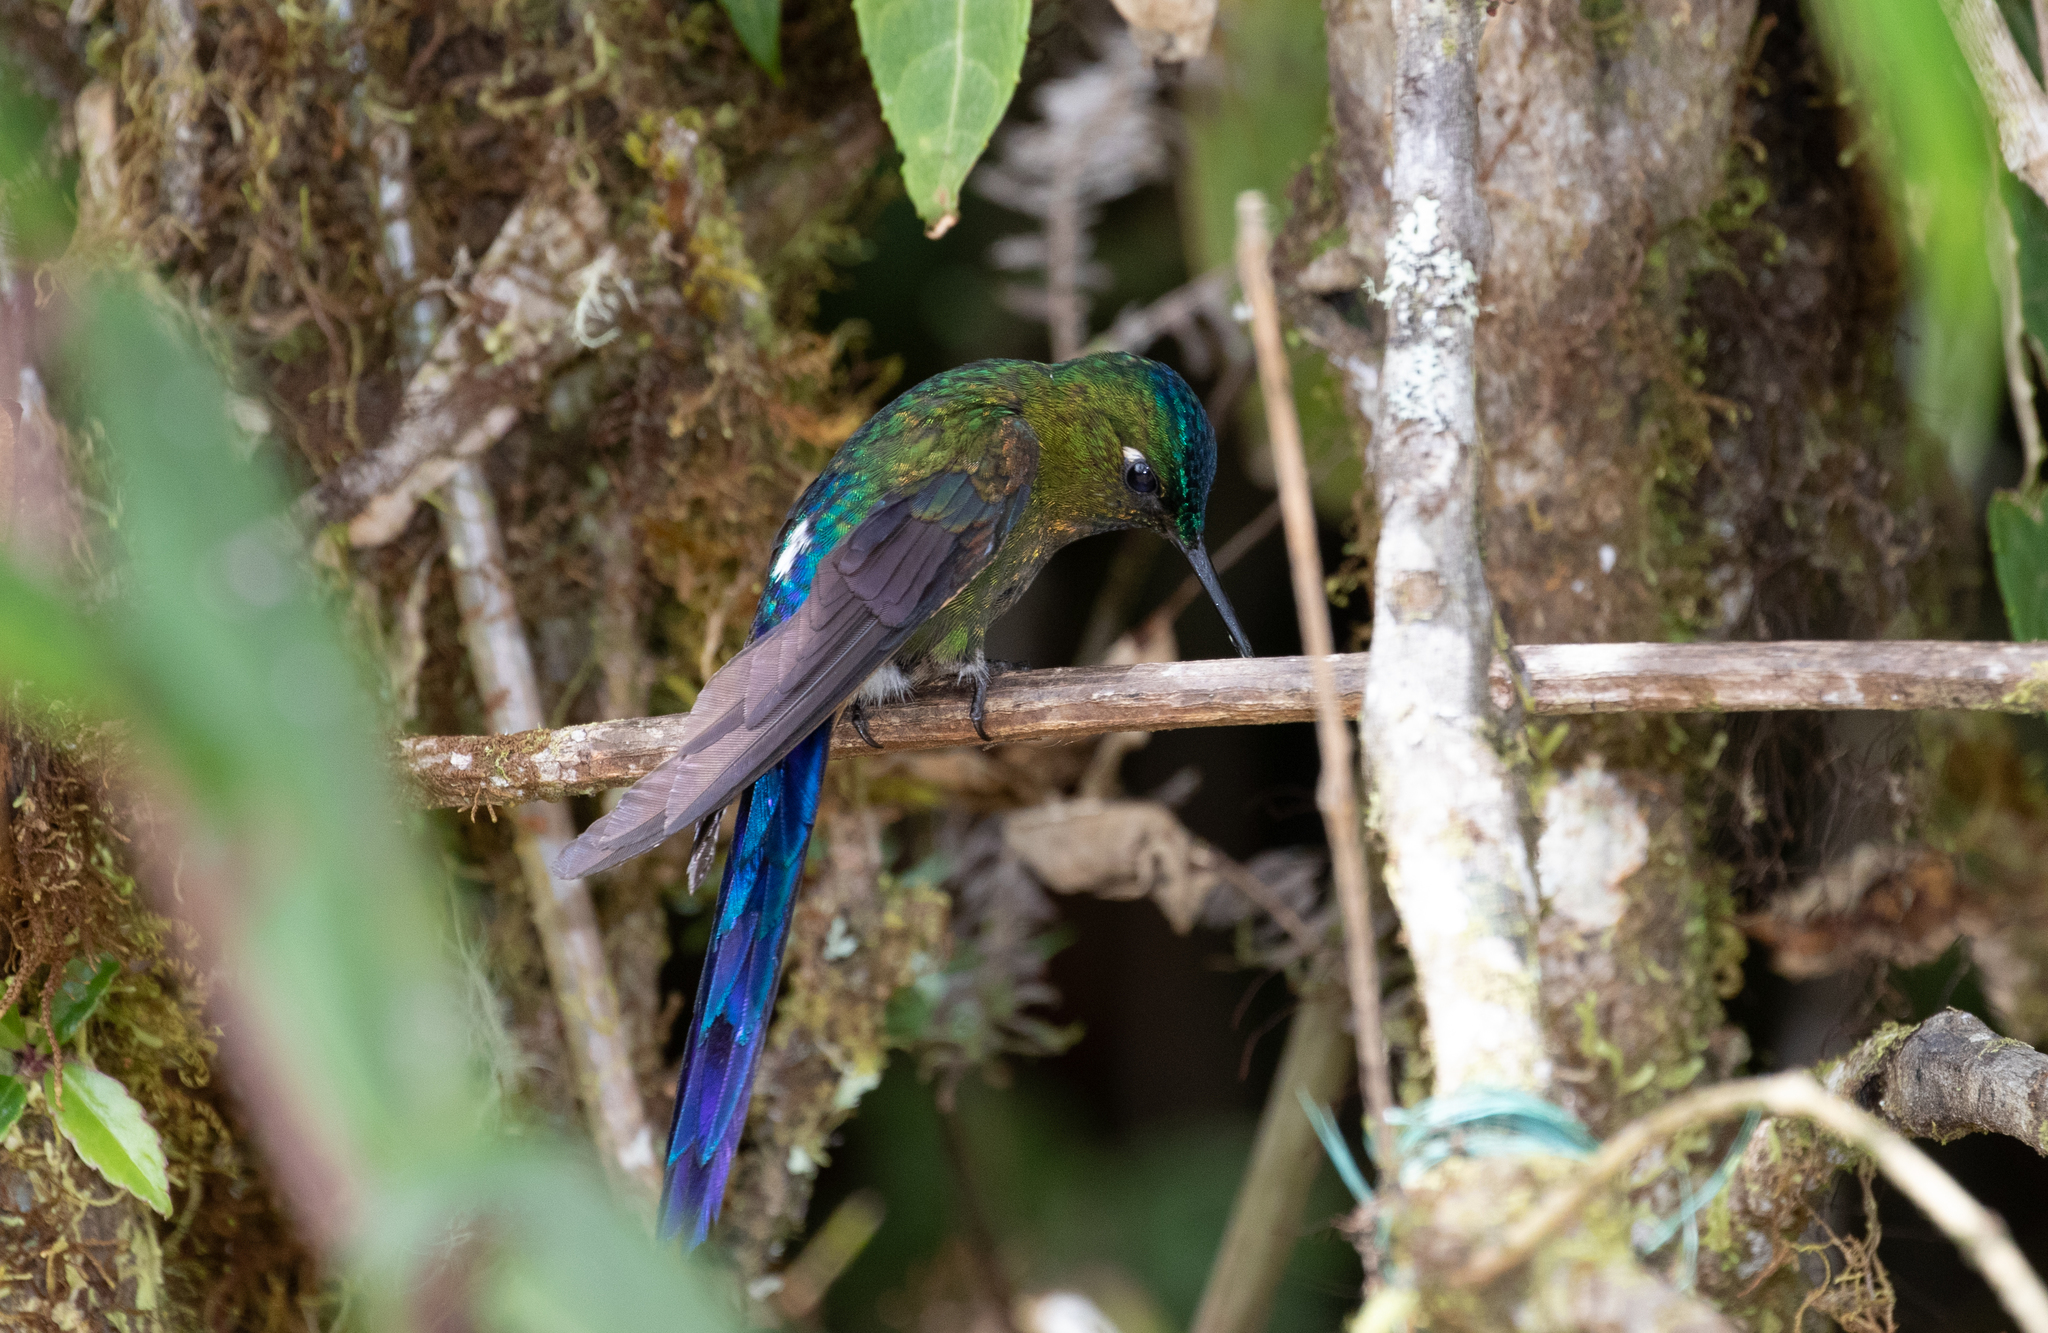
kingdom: Animalia
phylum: Chordata
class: Aves
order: Apodiformes
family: Trochilidae
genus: Aglaiocercus
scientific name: Aglaiocercus coelestis
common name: Violet-tailed sylph
